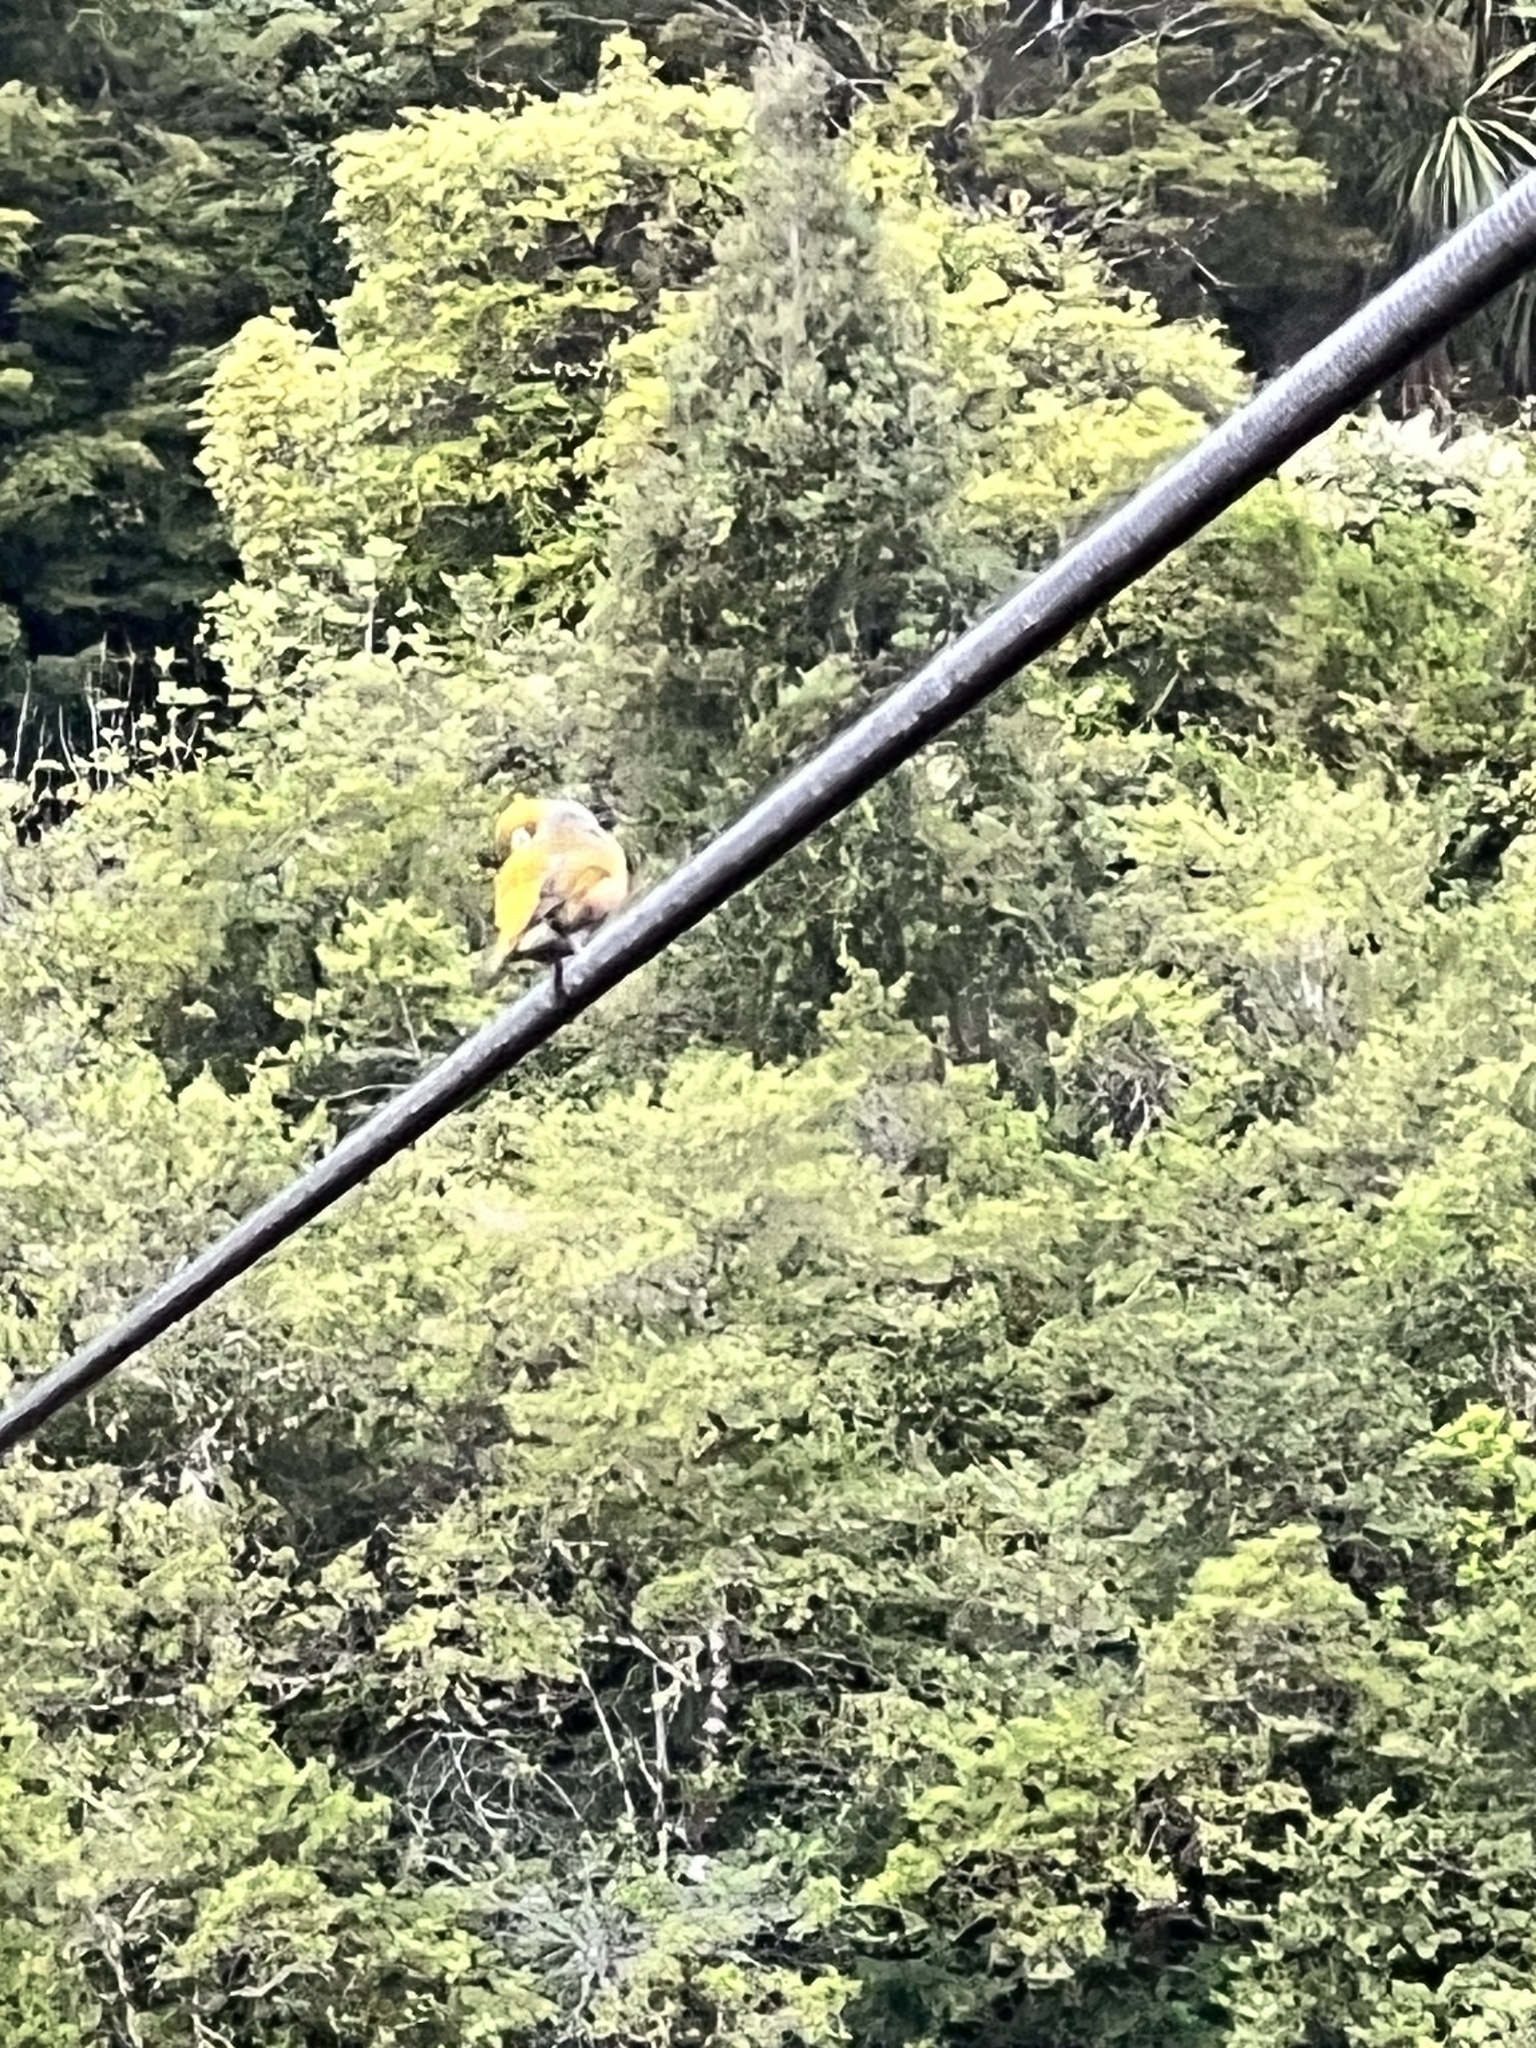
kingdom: Animalia
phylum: Chordata
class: Aves
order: Passeriformes
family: Zosteropidae
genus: Zosterops
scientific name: Zosterops lateralis
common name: Silvereye
